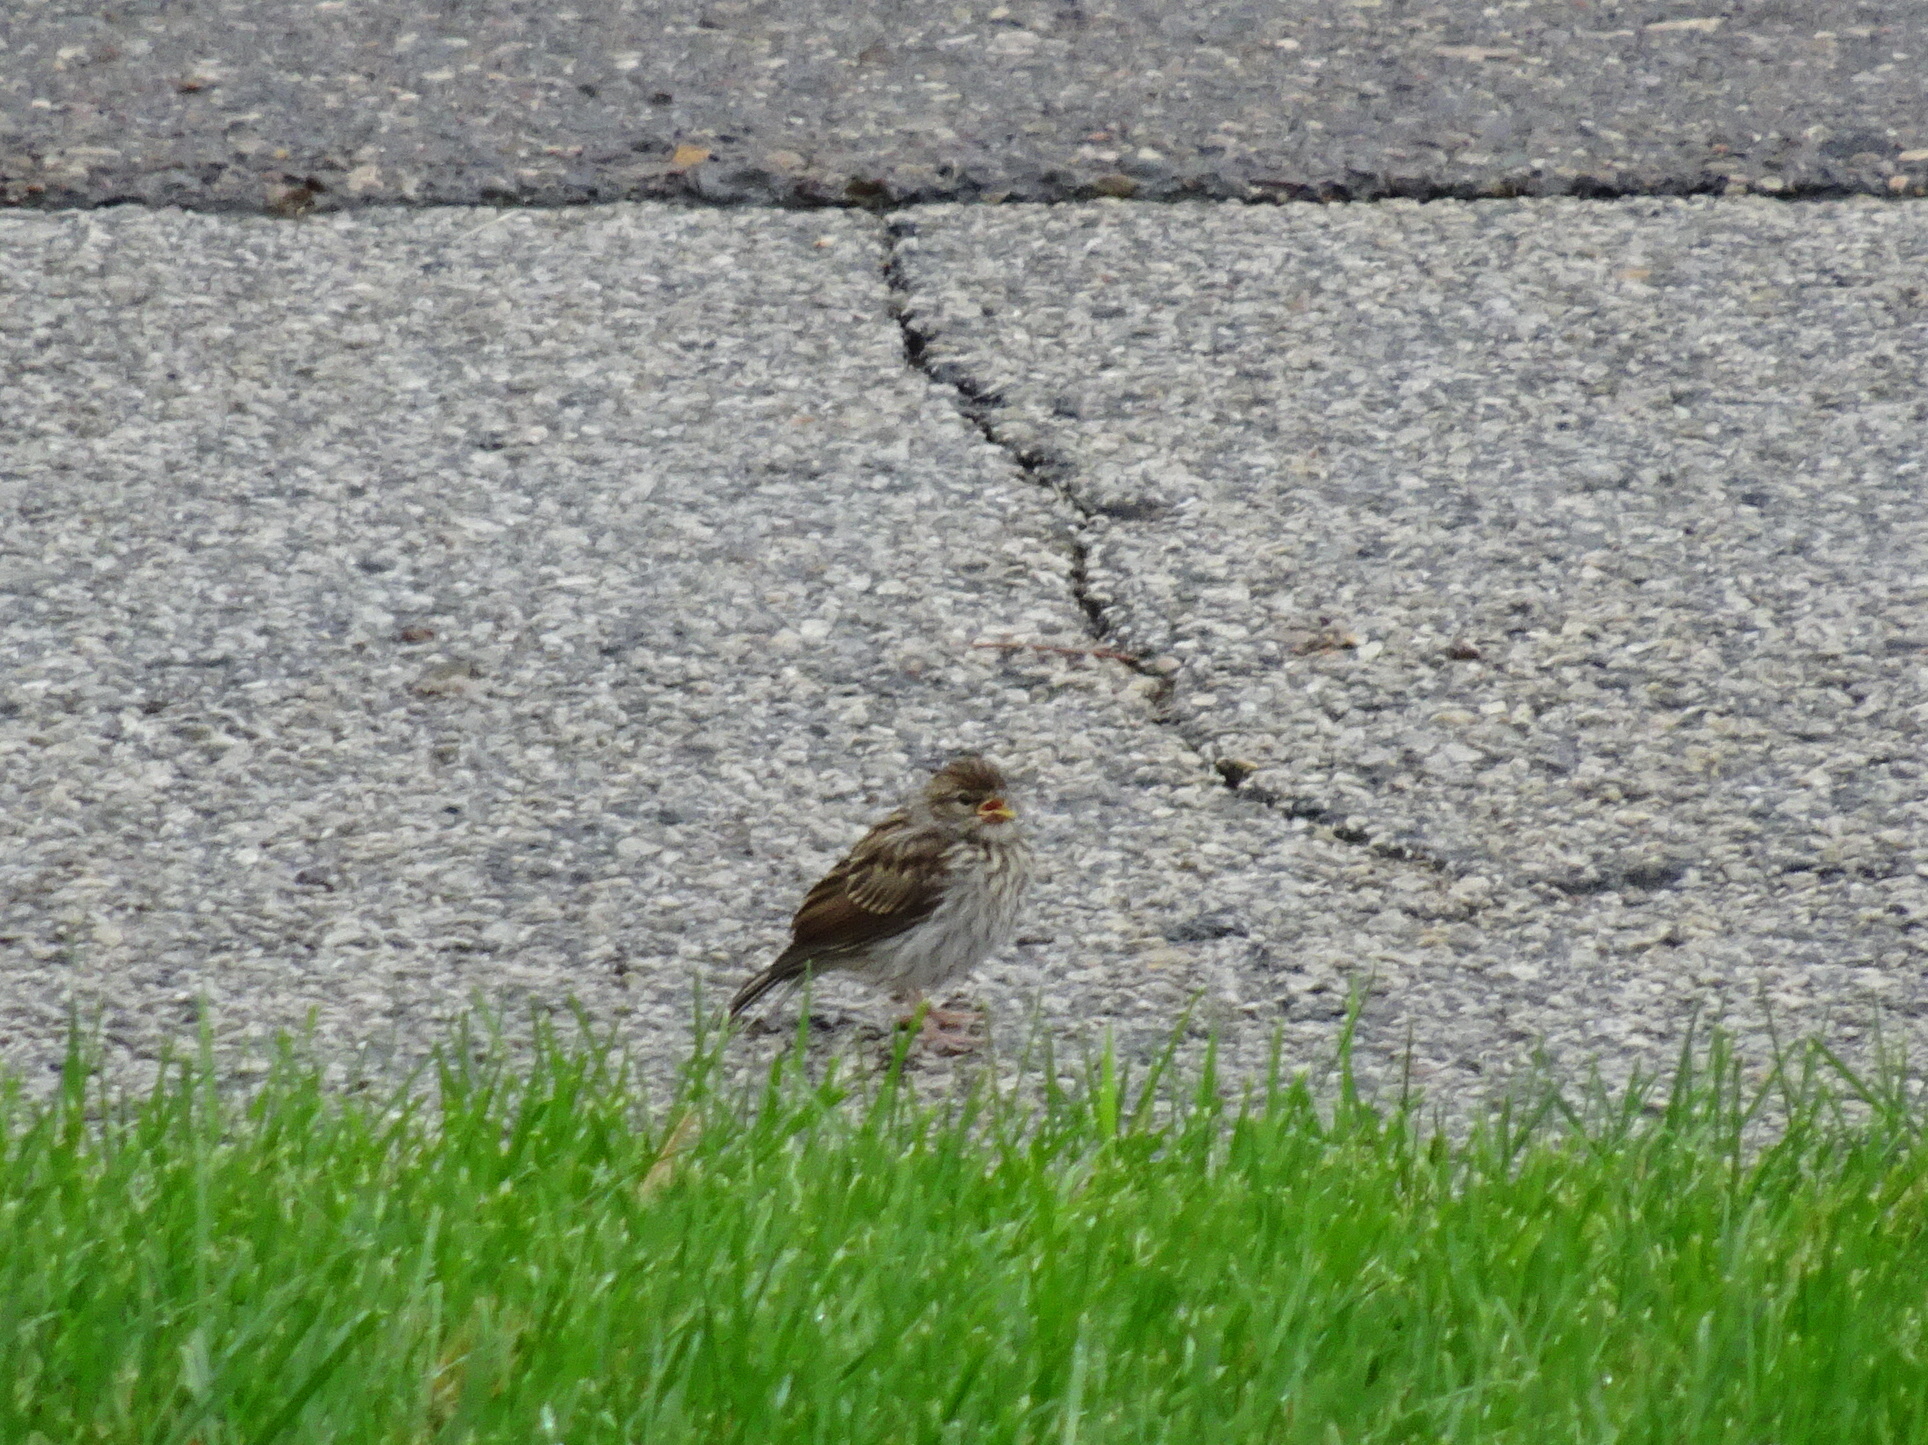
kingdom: Animalia
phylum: Chordata
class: Aves
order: Passeriformes
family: Passerellidae
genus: Spizella
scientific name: Spizella passerina
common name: Chipping sparrow
